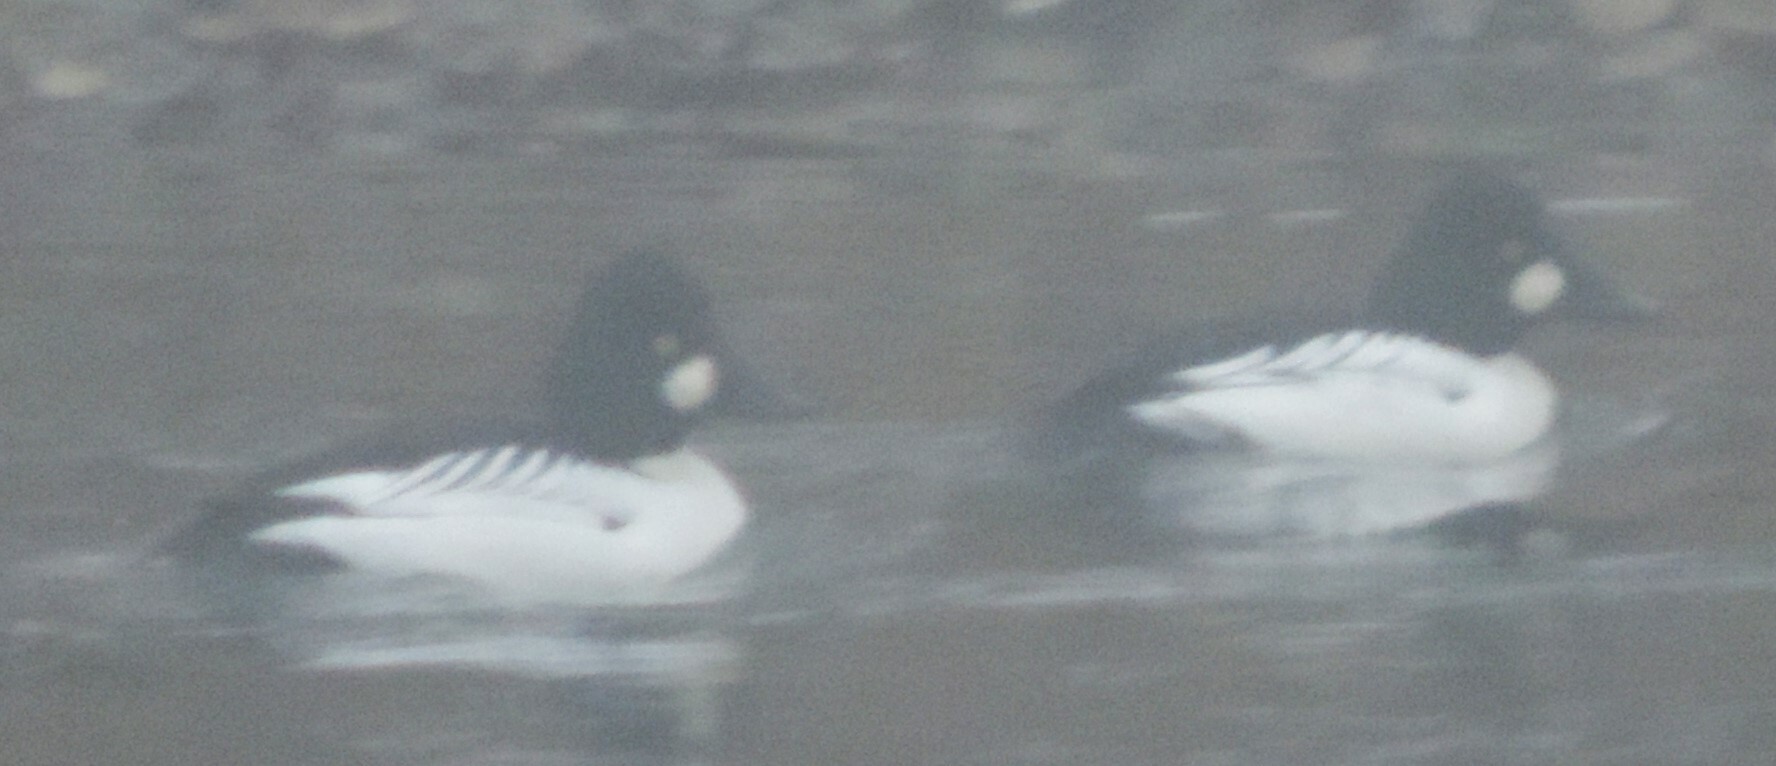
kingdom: Animalia
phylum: Chordata
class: Aves
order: Anseriformes
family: Anatidae
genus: Bucephala
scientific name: Bucephala clangula
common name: Common goldeneye
